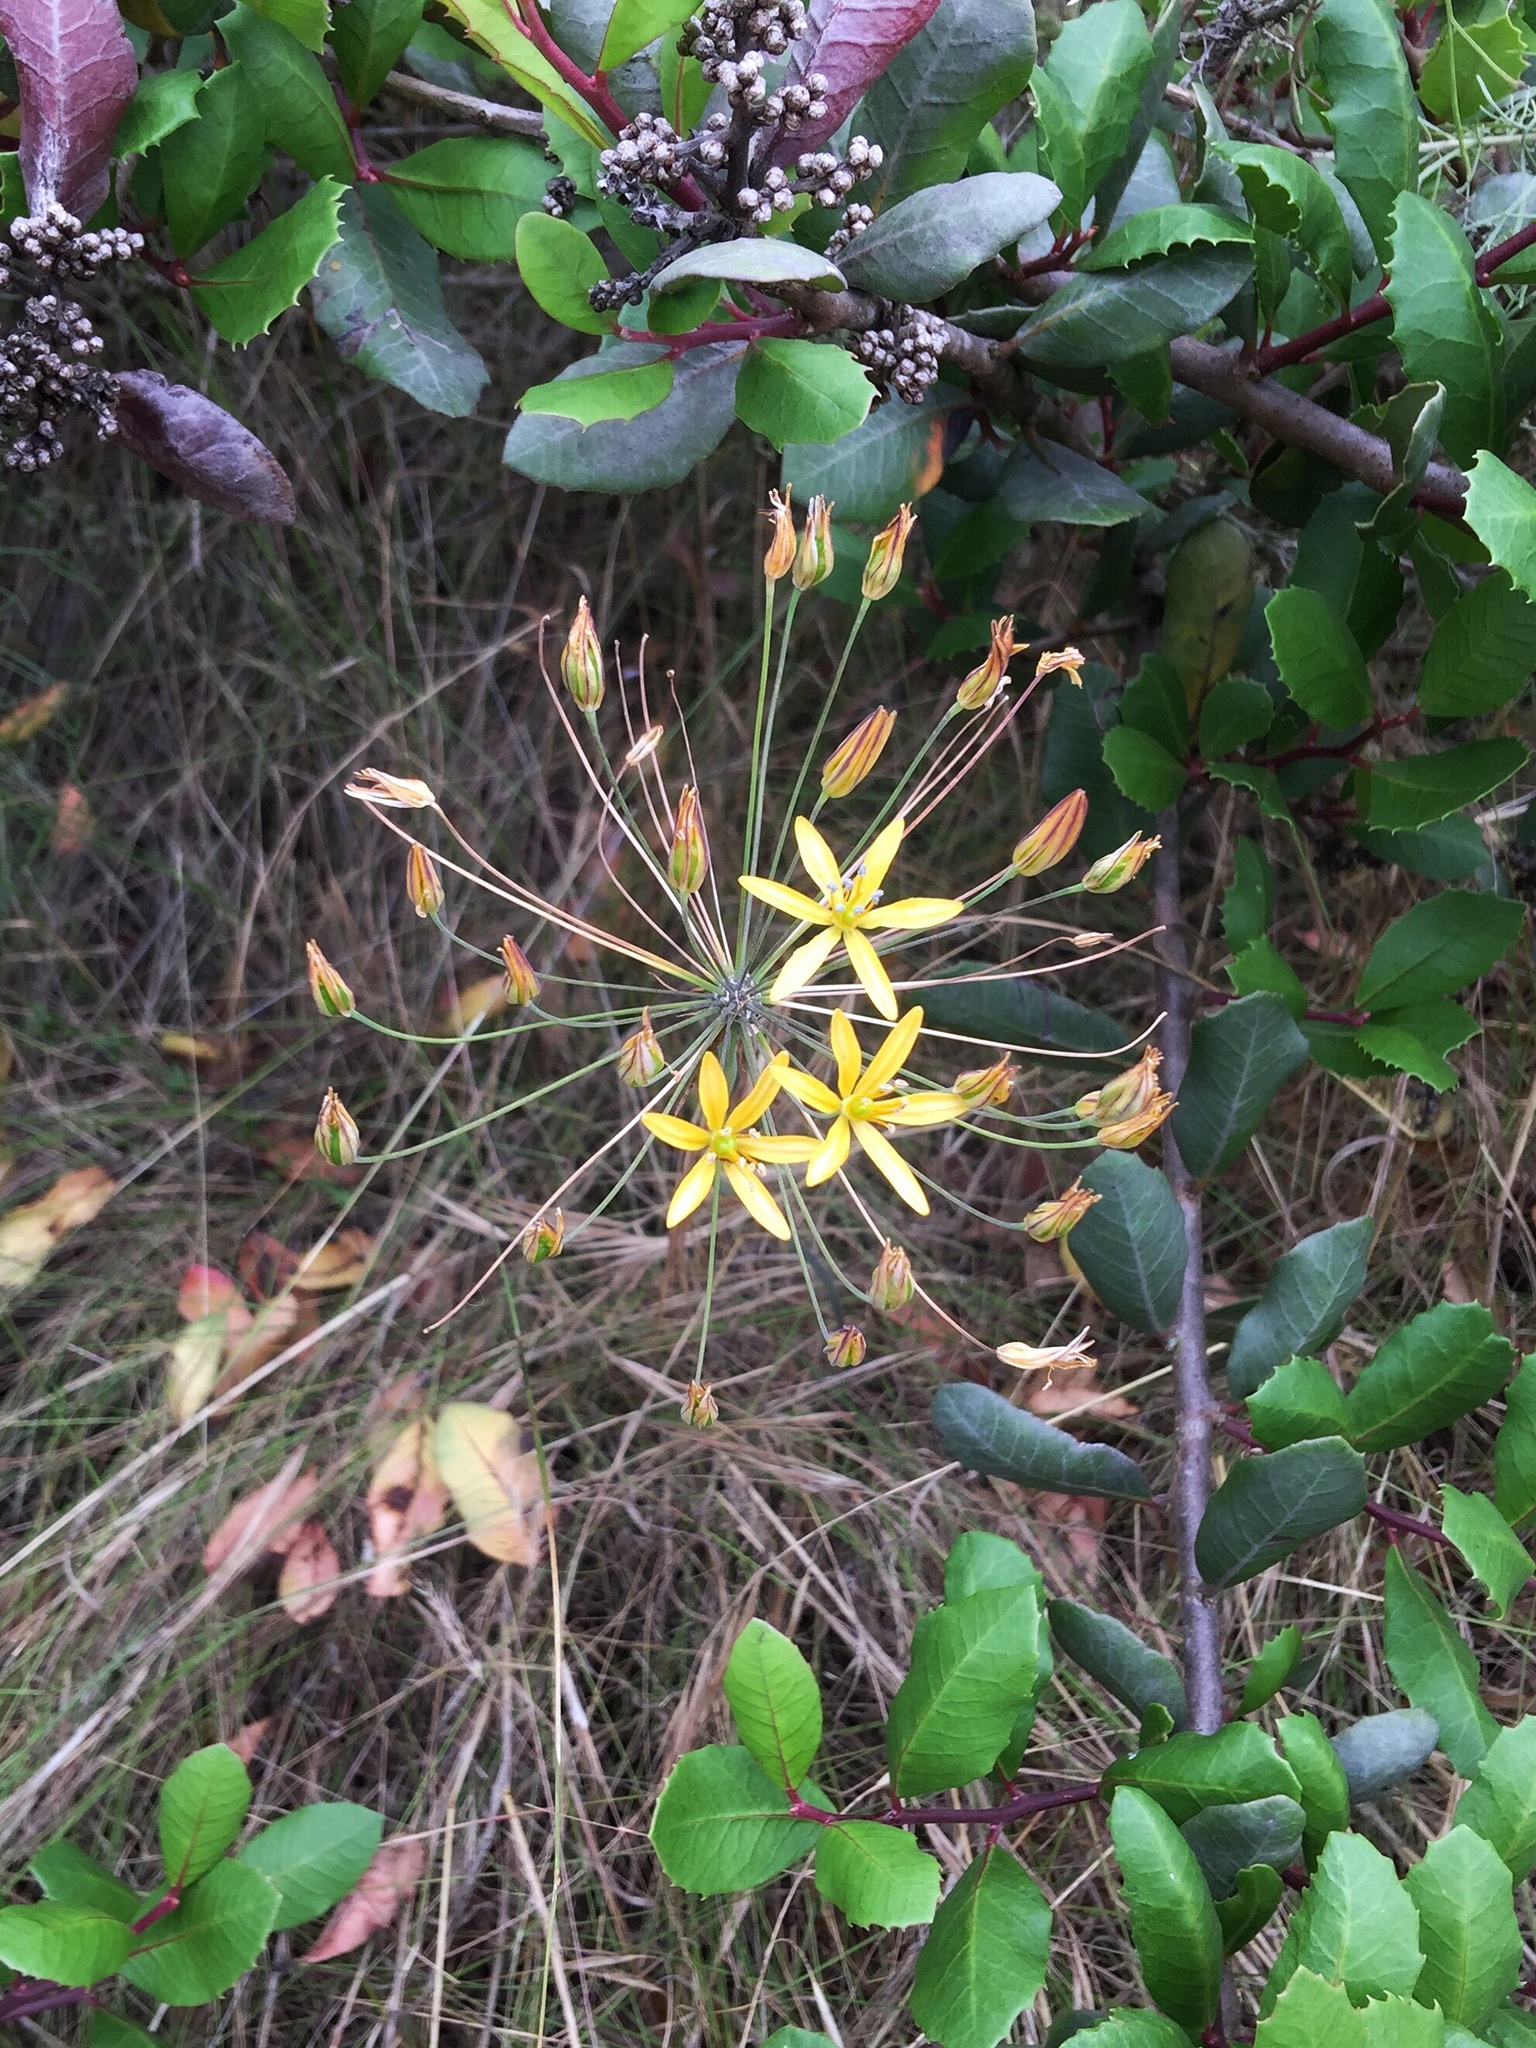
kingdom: Plantae
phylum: Tracheophyta
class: Liliopsida
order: Asparagales
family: Asparagaceae
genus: Bloomeria
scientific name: Bloomeria crocea
